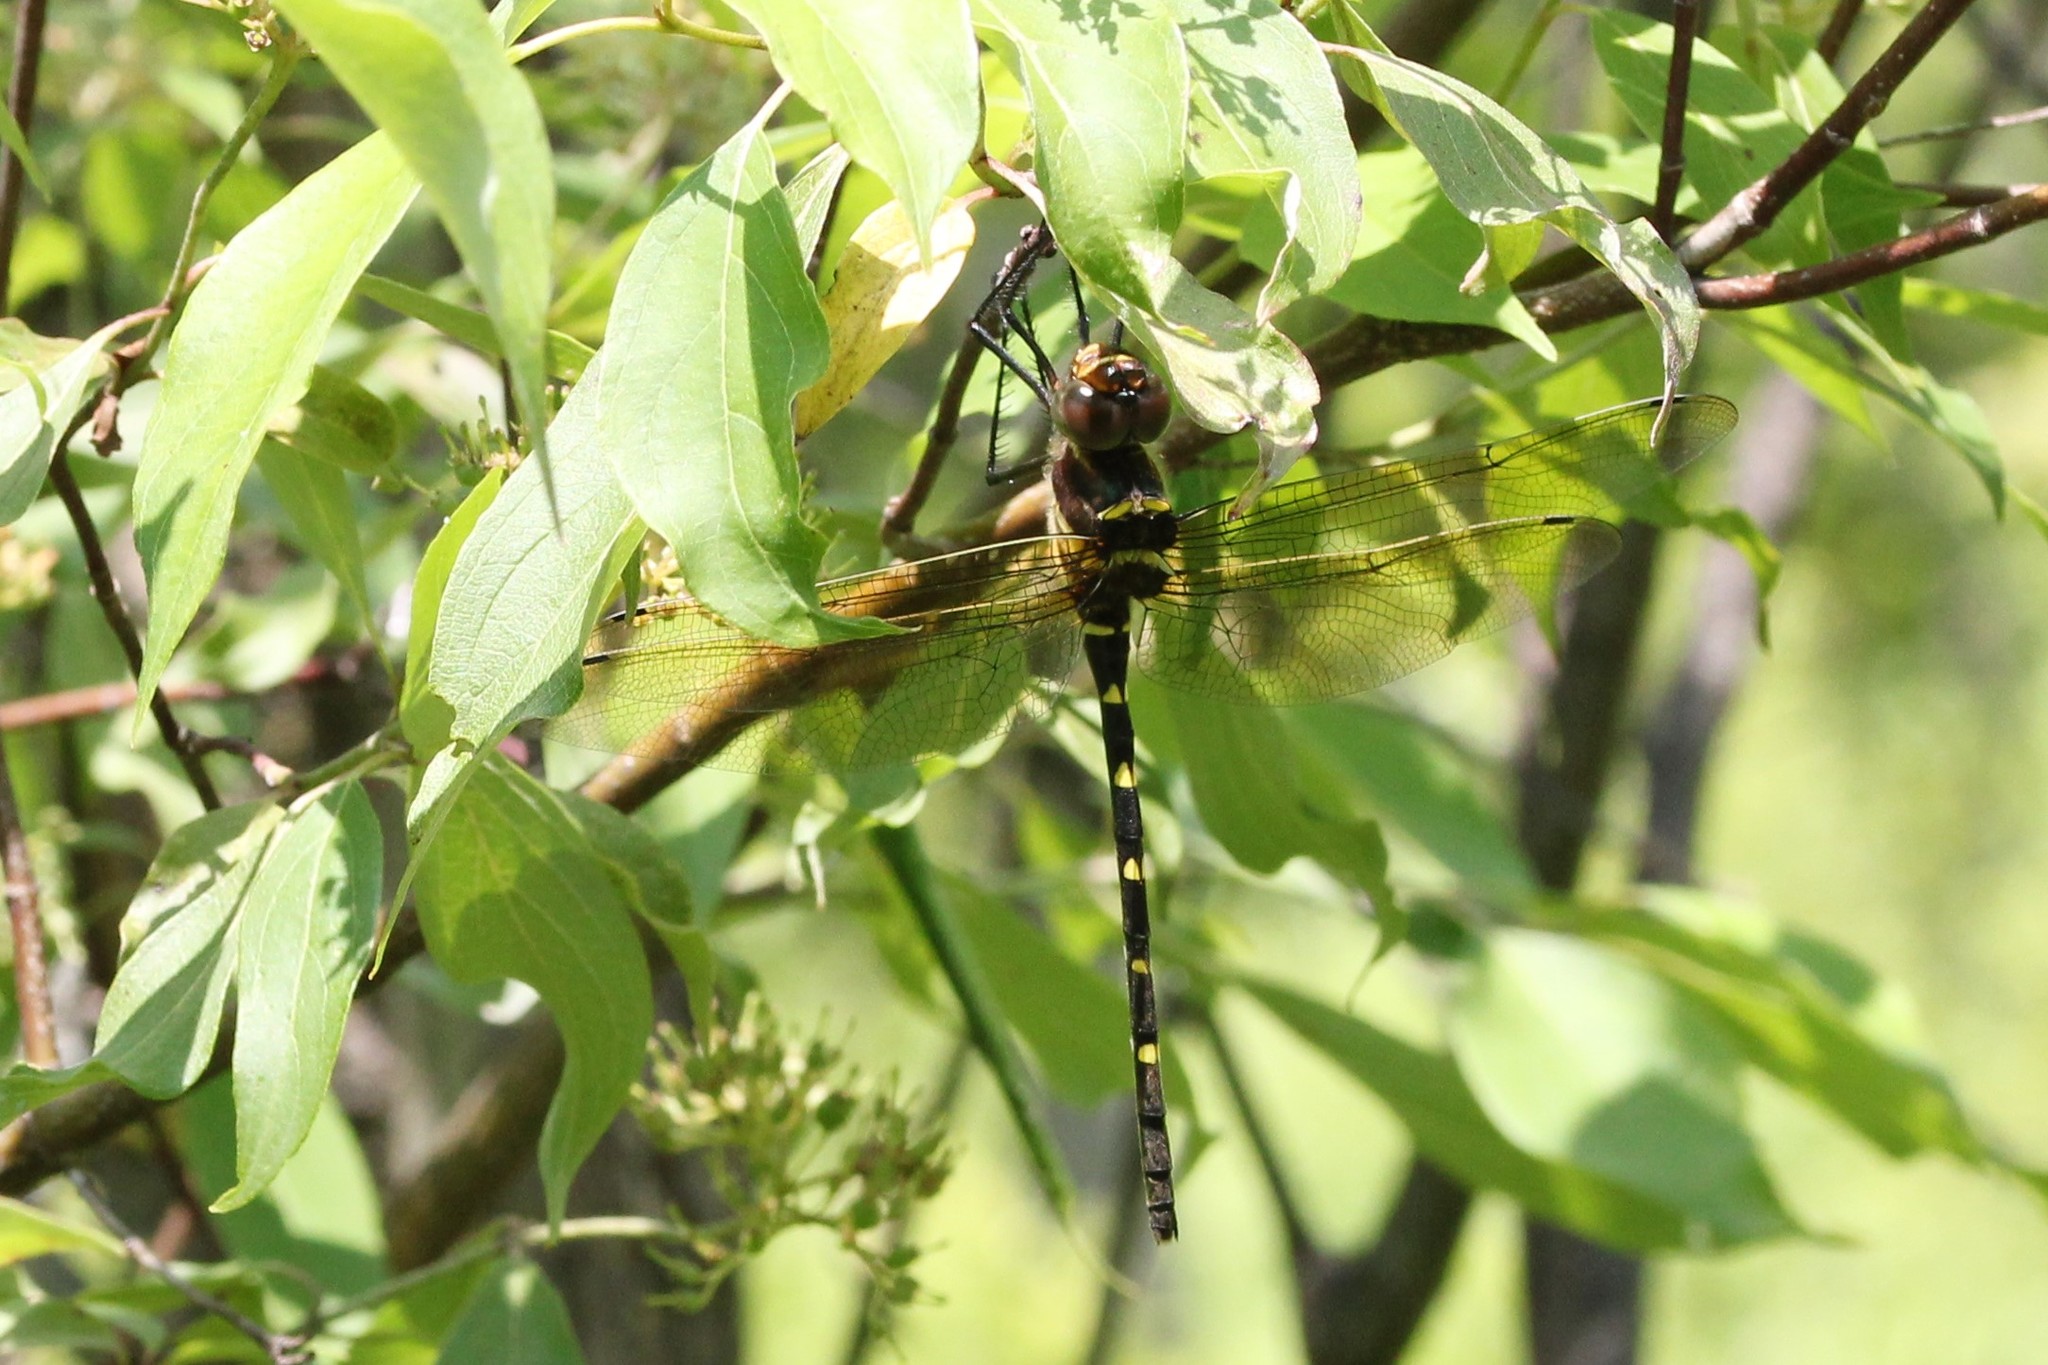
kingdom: Animalia
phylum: Arthropoda
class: Insecta
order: Odonata
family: Macromiidae
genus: Macromia
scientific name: Macromia taeniolata
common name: Royal river cruiser
